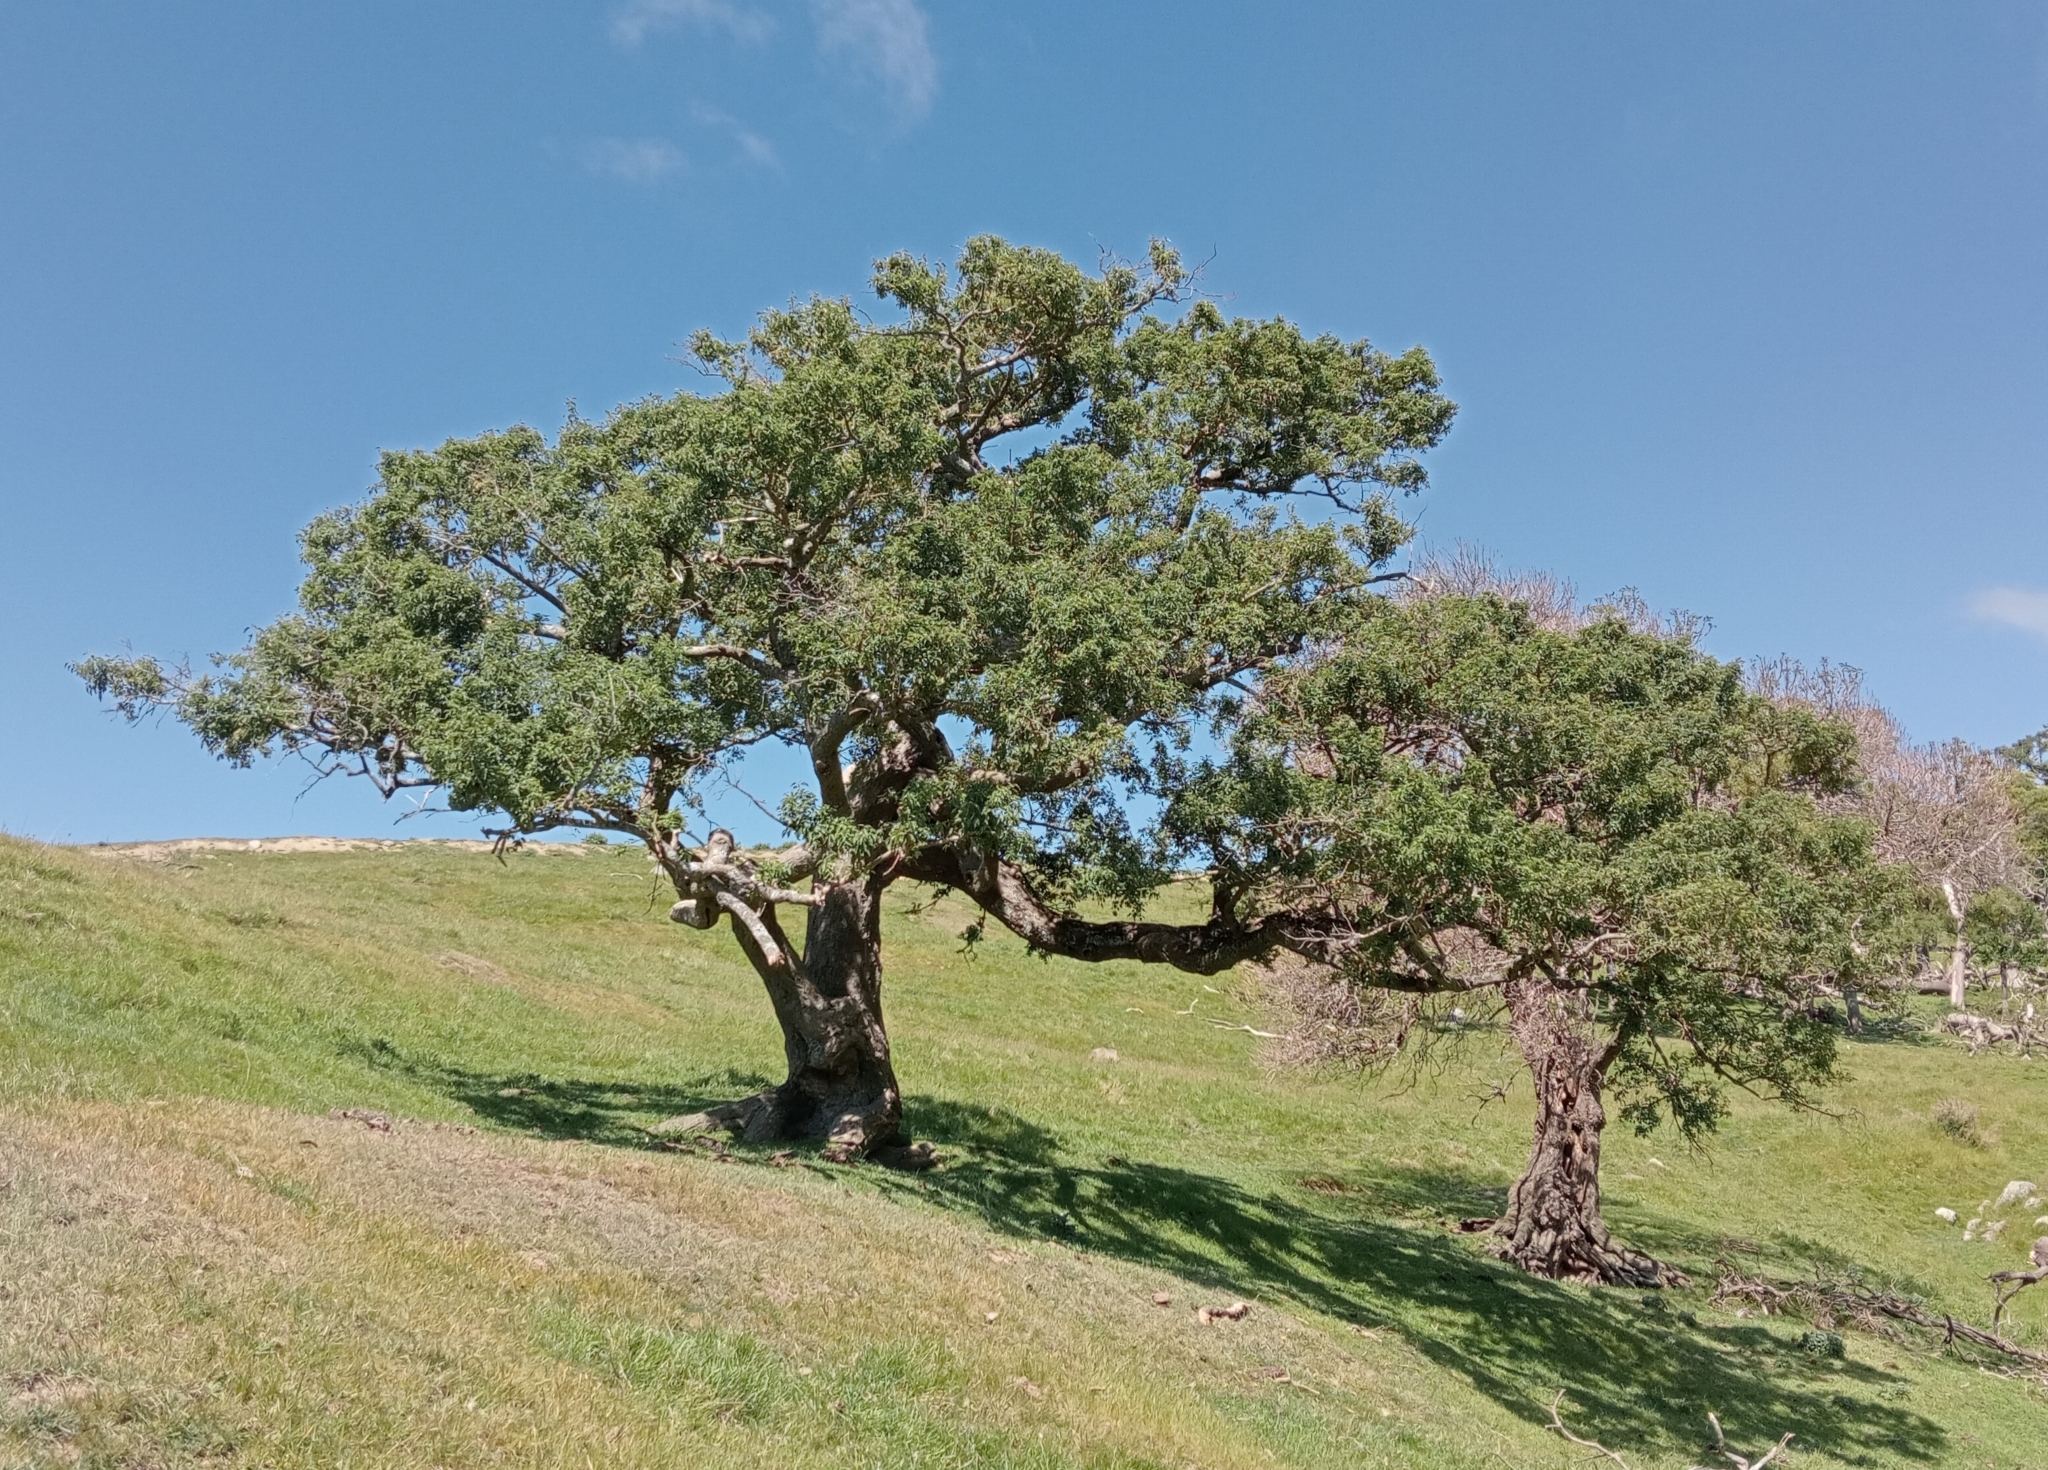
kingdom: Plantae
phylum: Tracheophyta
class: Magnoliopsida
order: Malvales
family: Malvaceae
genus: Plagianthus
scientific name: Plagianthus regius
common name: Manatu
